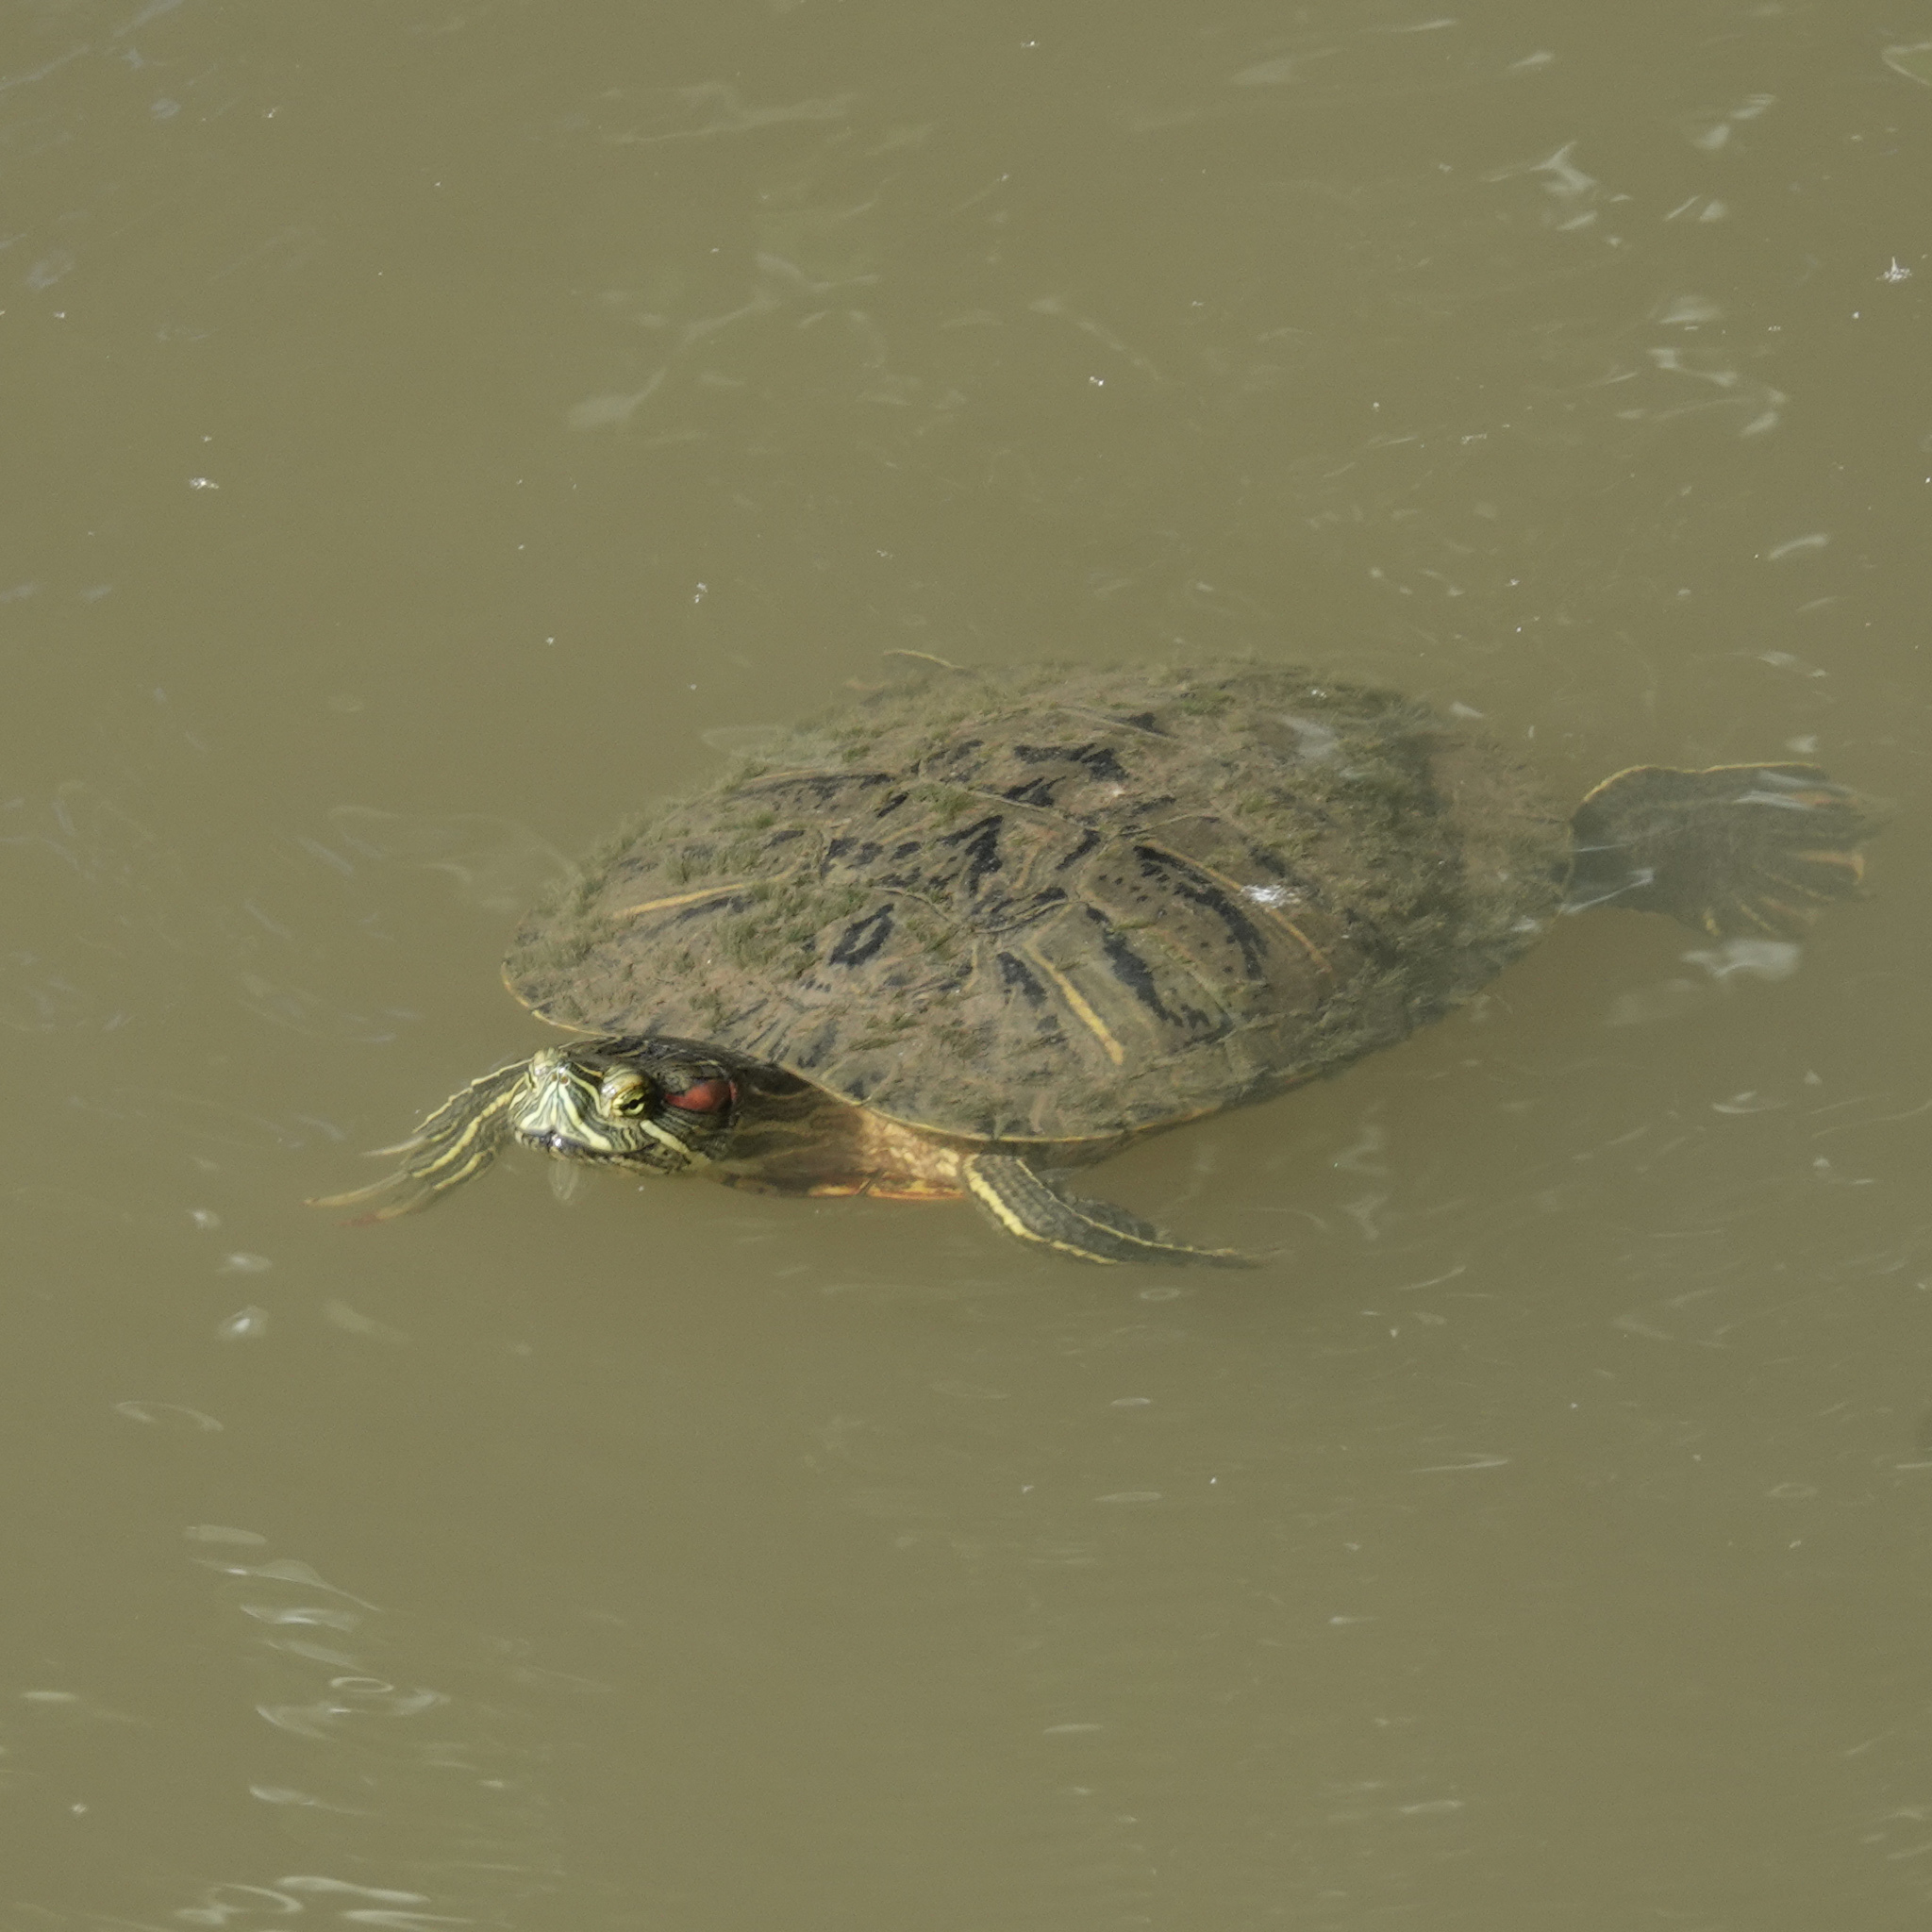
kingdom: Animalia
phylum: Chordata
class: Testudines
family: Emydidae
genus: Trachemys
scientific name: Trachemys scripta
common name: Slider
